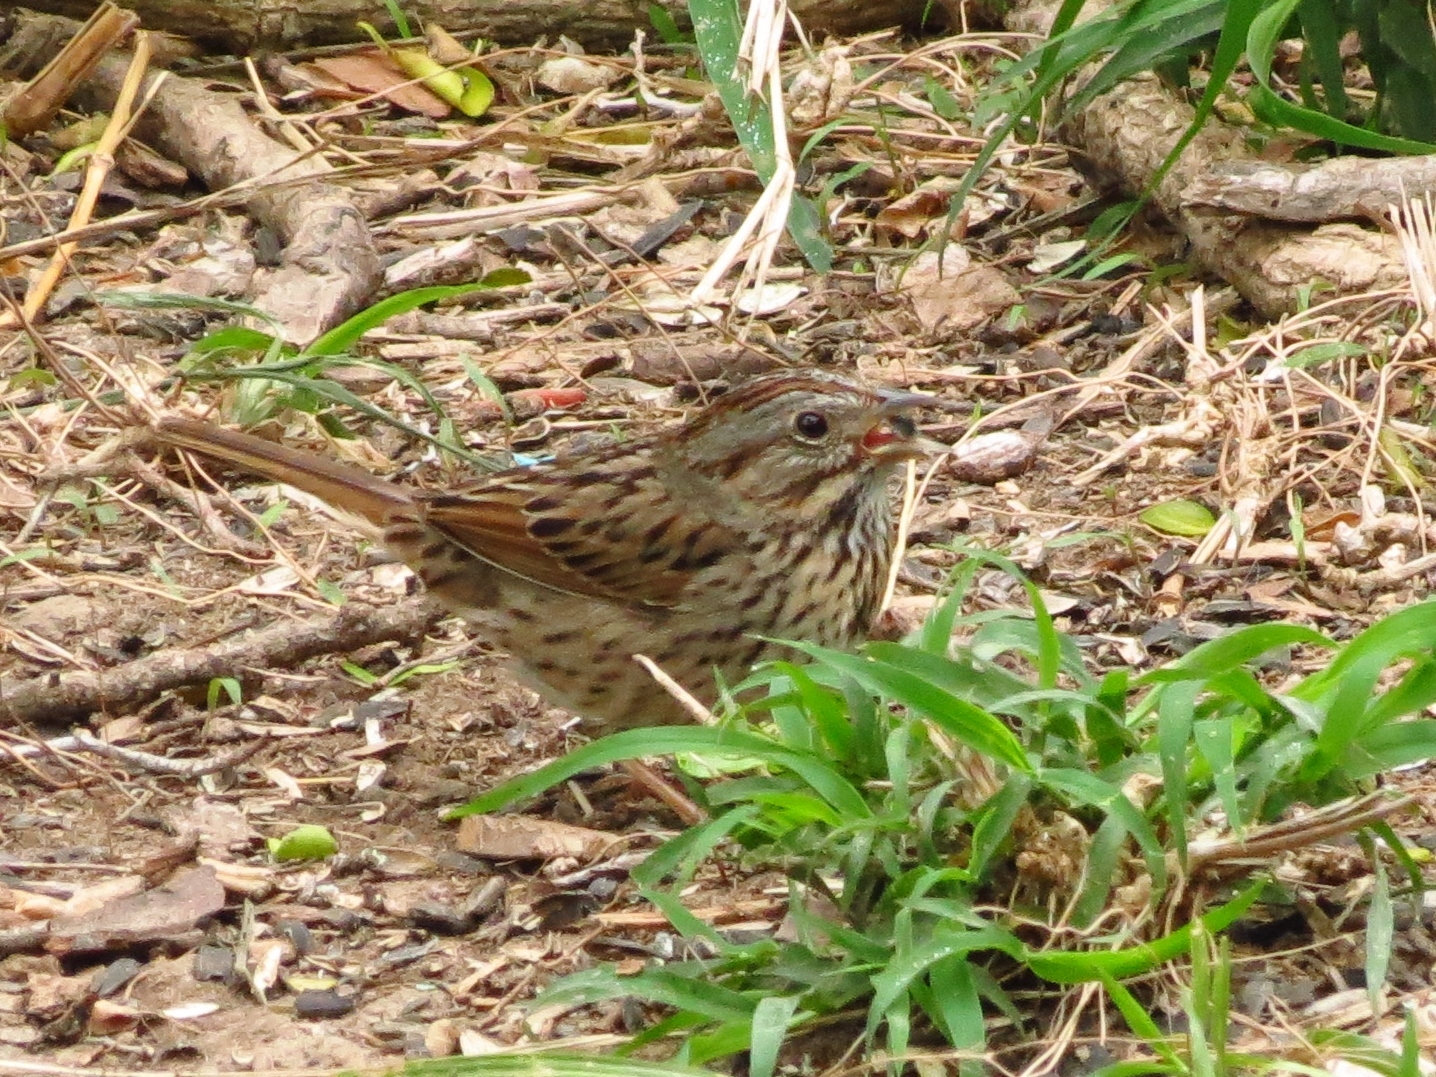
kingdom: Animalia
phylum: Chordata
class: Aves
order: Passeriformes
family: Passerellidae
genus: Melospiza
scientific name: Melospiza lincolnii
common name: Lincoln's sparrow
